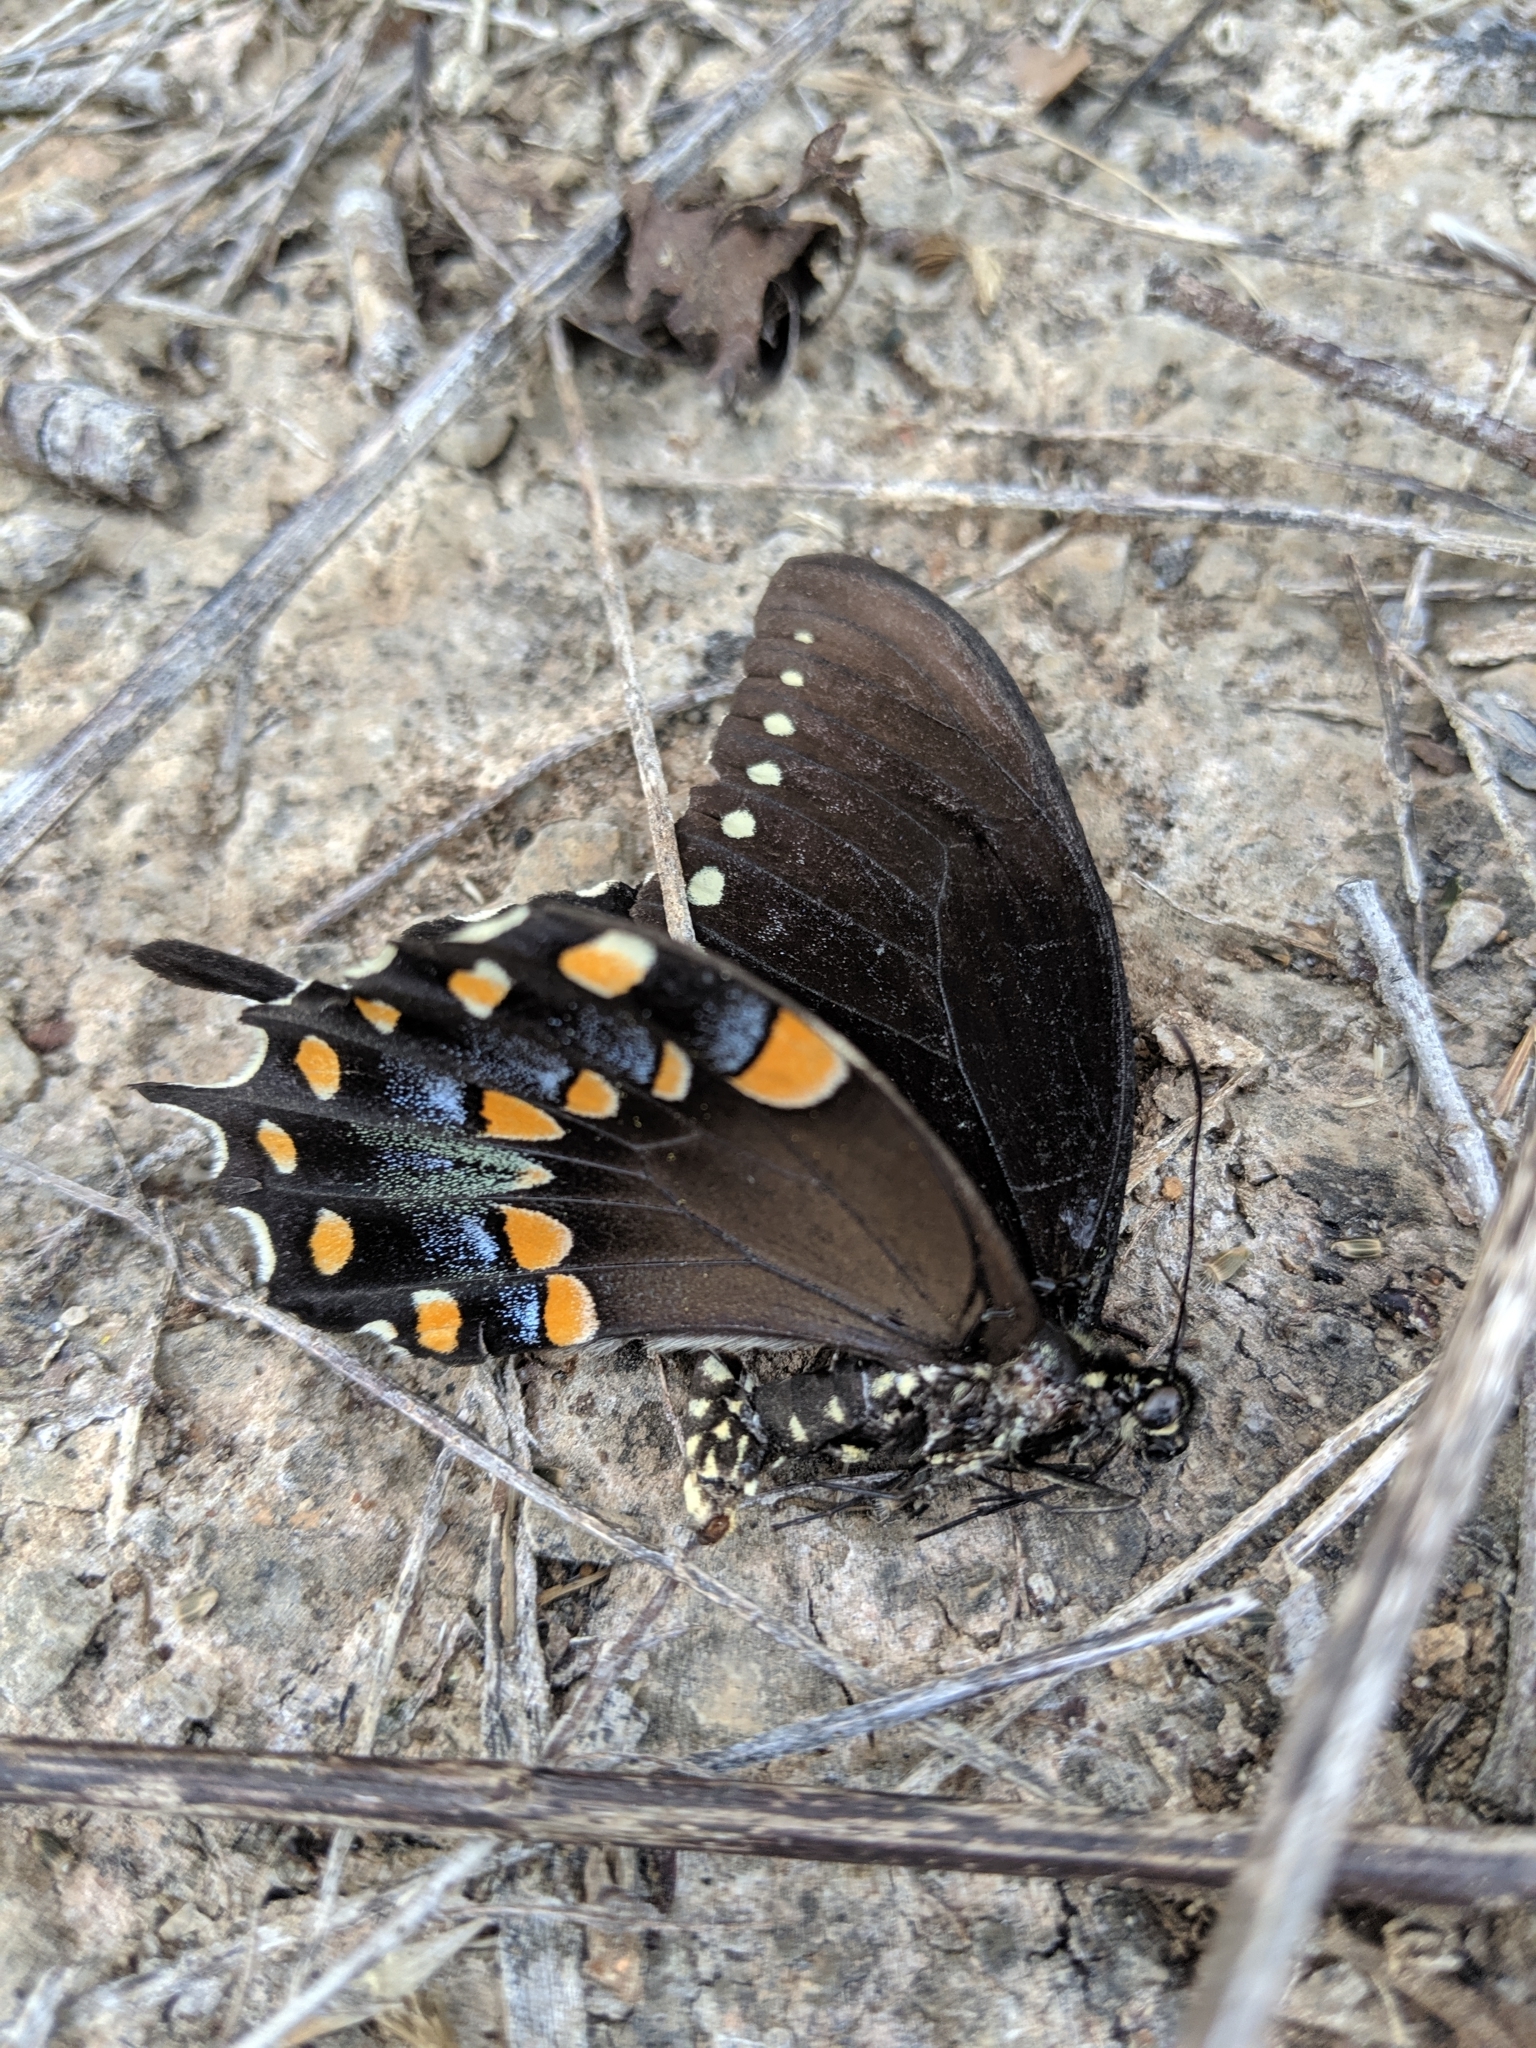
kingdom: Animalia
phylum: Arthropoda
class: Insecta
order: Lepidoptera
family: Papilionidae
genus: Papilio
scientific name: Papilio troilus
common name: Spicebush swallowtail
